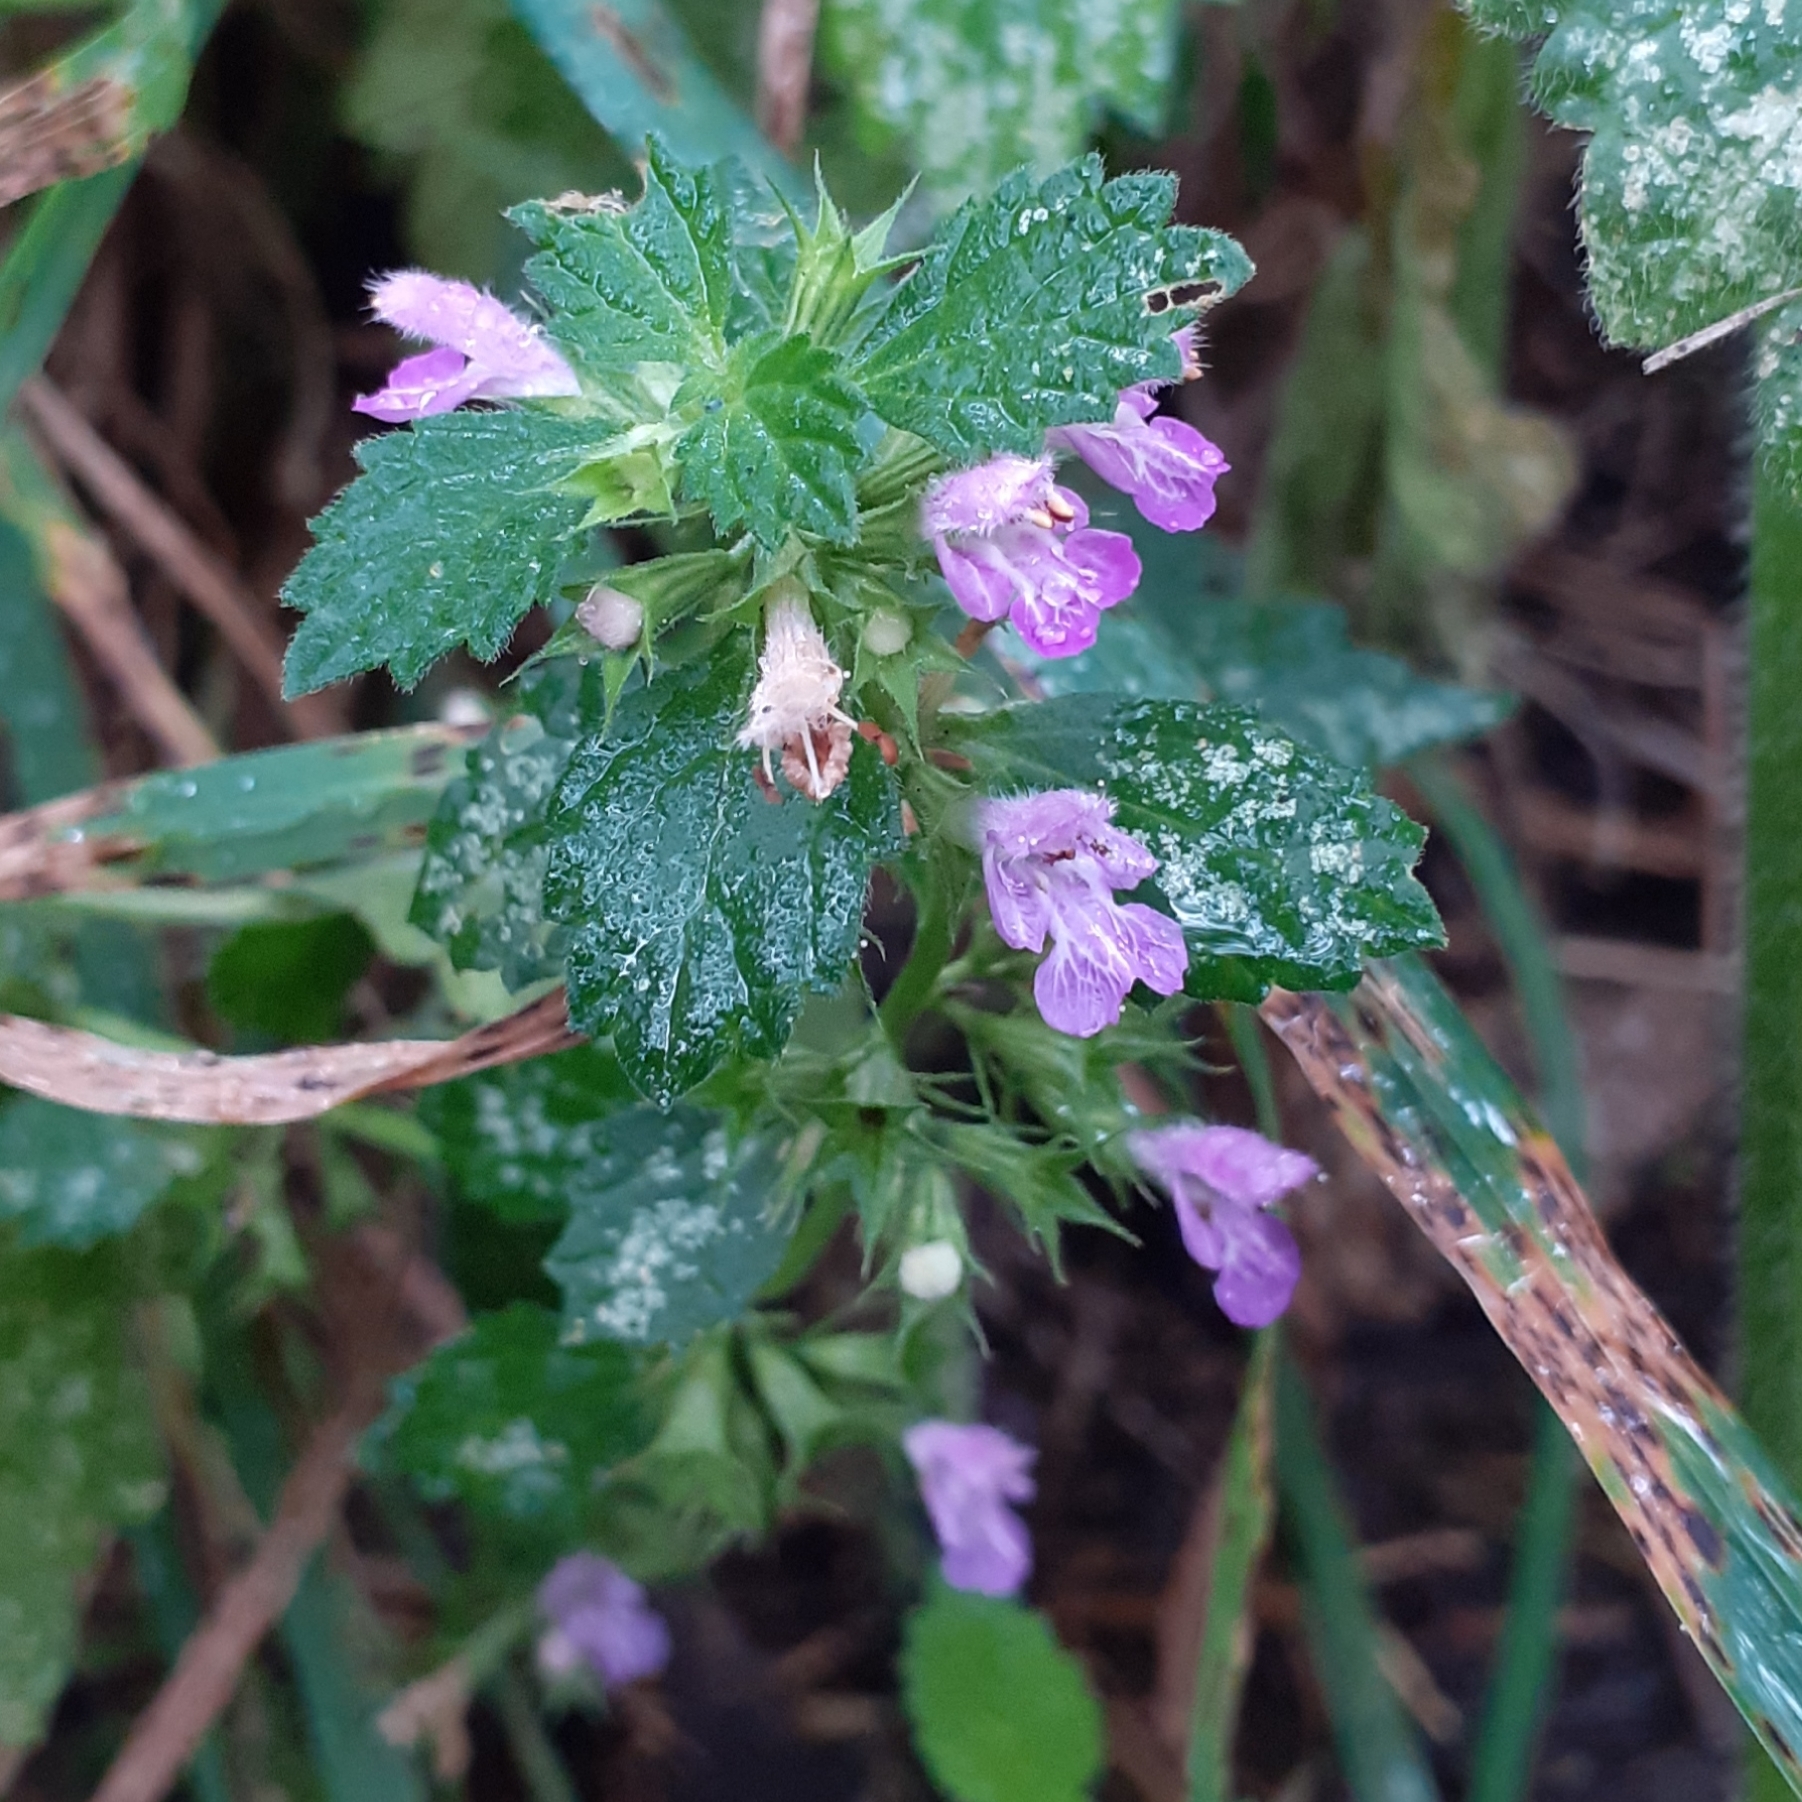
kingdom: Plantae
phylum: Tracheophyta
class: Magnoliopsida
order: Lamiales
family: Lamiaceae
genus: Ballota
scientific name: Ballota nigra
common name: Black horehound
